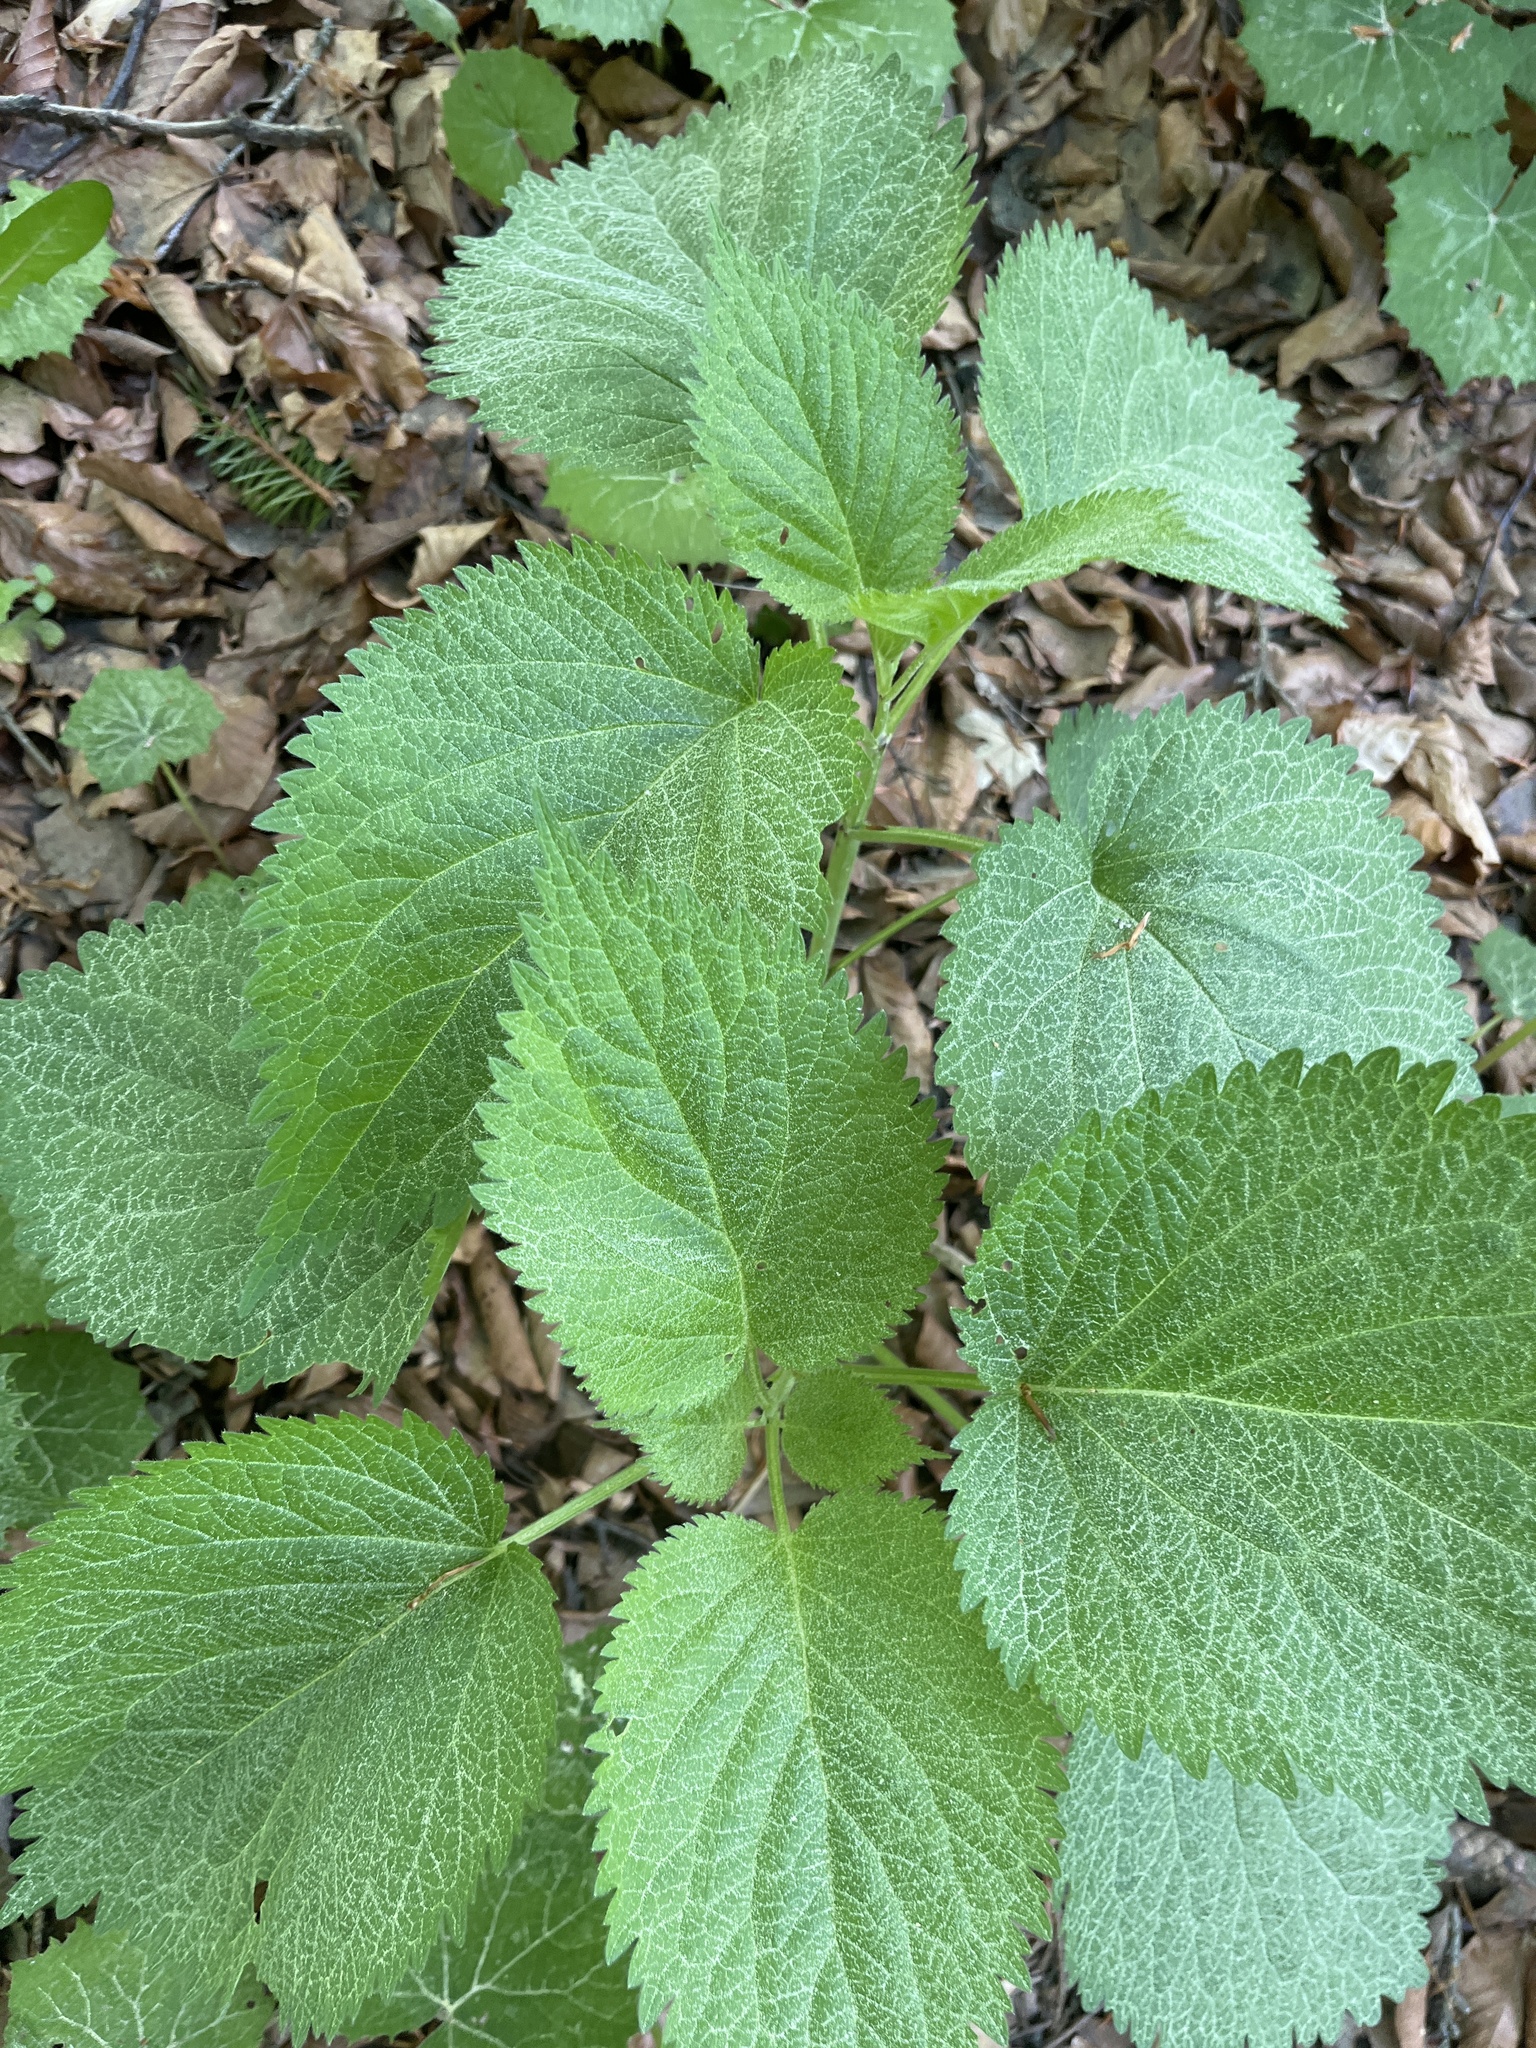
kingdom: Plantae
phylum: Tracheophyta
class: Magnoliopsida
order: Lamiales
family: Lamiaceae
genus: Lamium
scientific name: Lamium orvala
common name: Balm-leaved archangel
